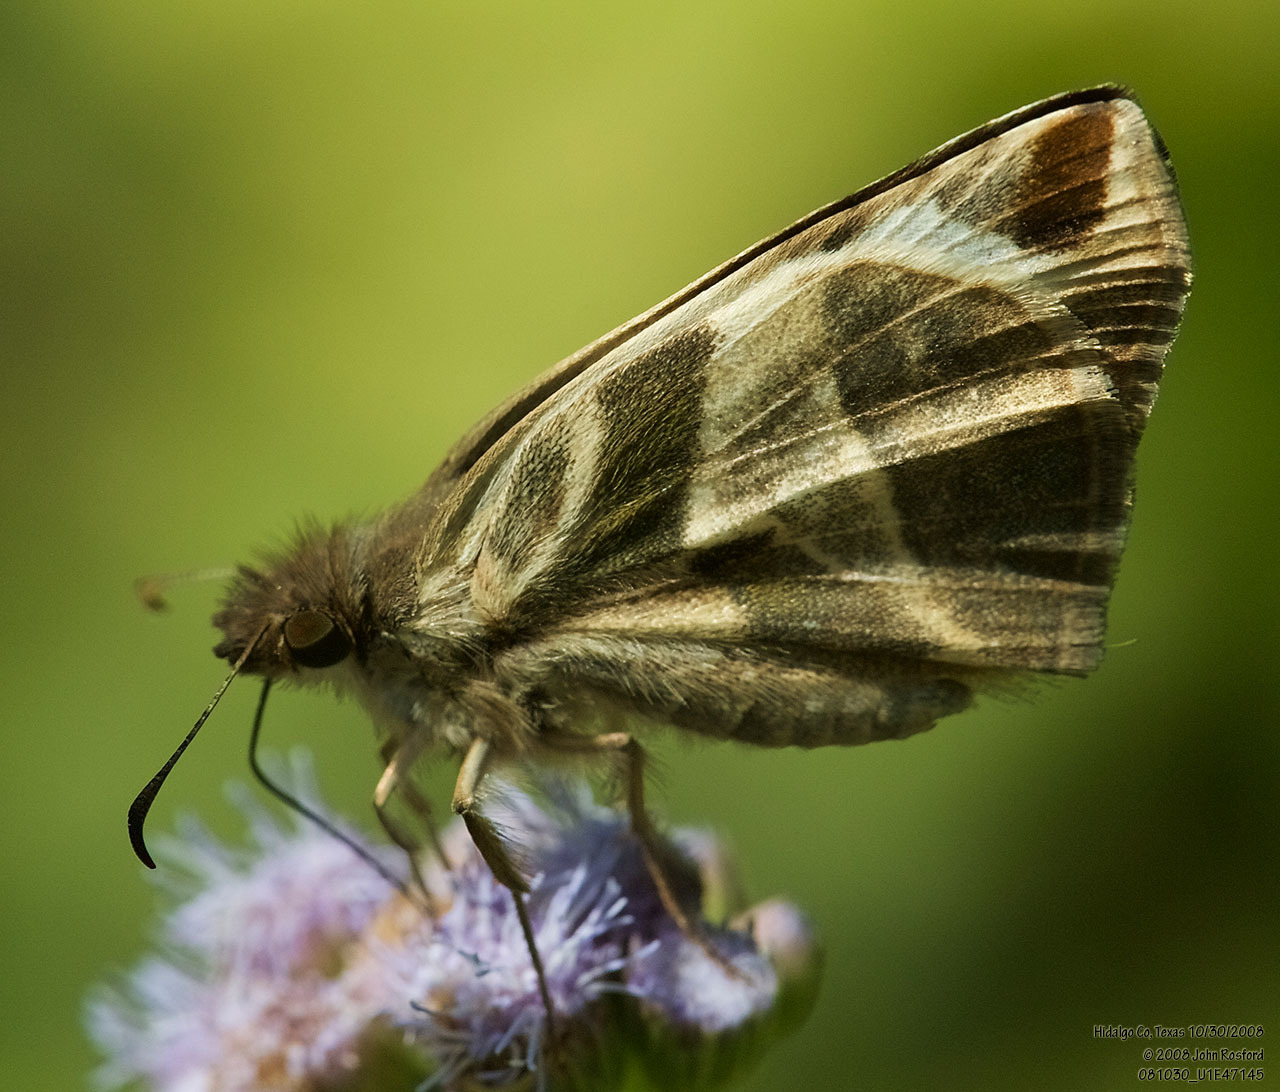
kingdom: Animalia
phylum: Arthropoda
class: Insecta
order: Lepidoptera
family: Hesperiidae
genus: Heliopetes
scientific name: Heliopetes laviana
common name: Laviana white-skipper
